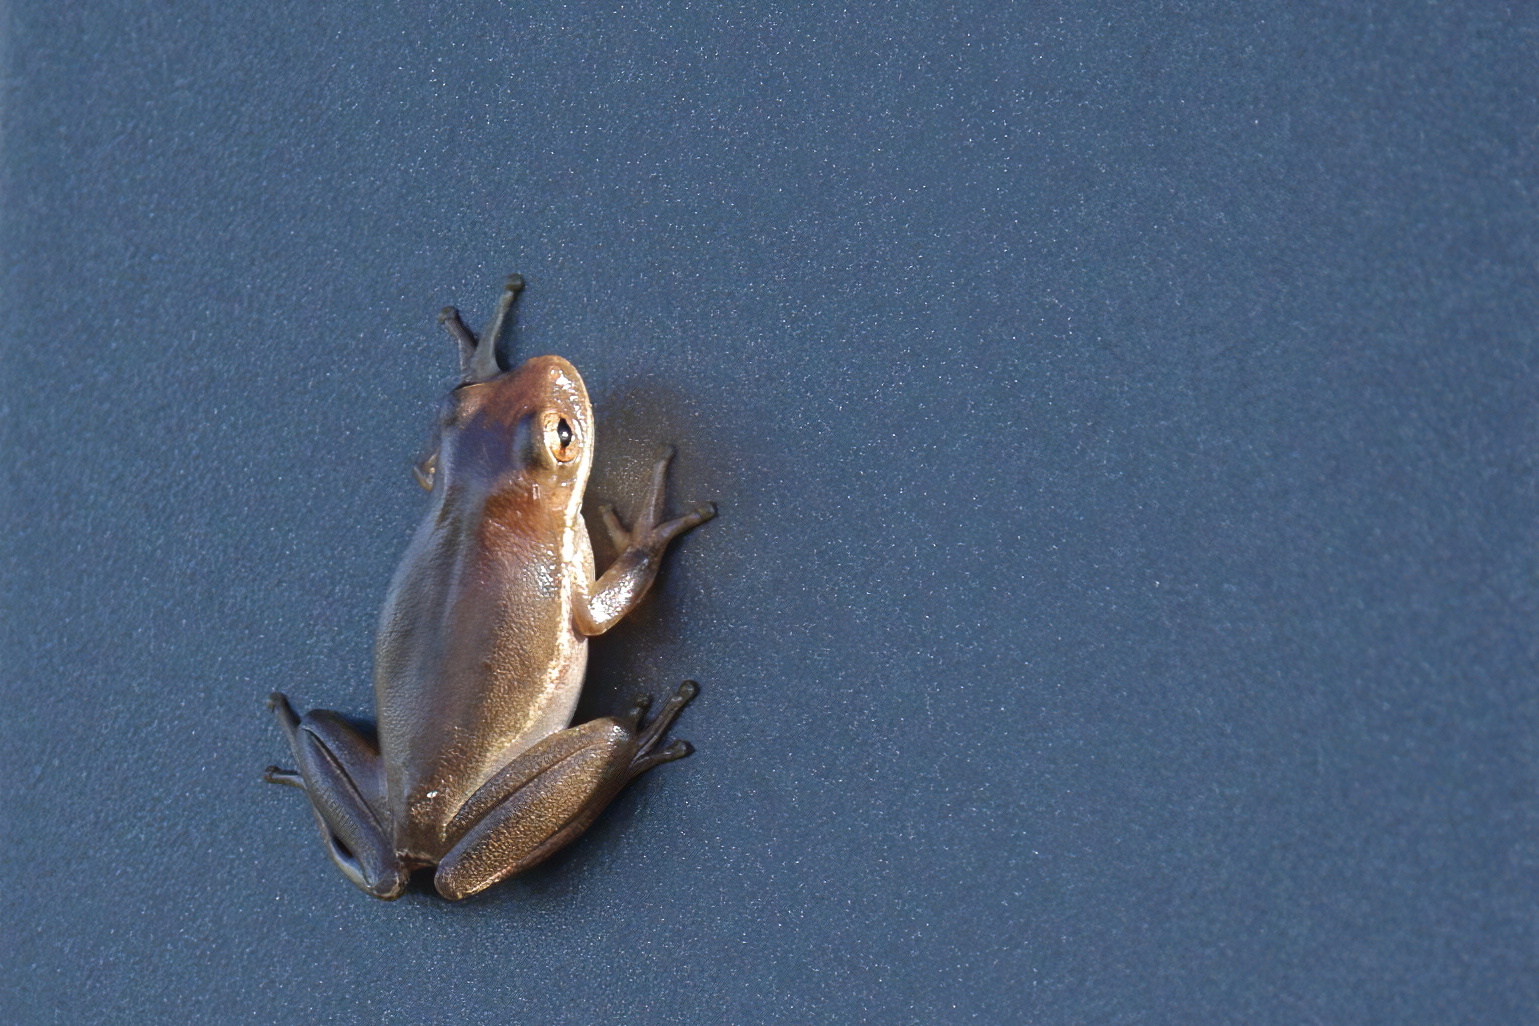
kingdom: Animalia
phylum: Chordata
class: Amphibia
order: Anura
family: Hylidae
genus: Dryophytes
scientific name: Dryophytes squirellus
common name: Squirrel treefrog
